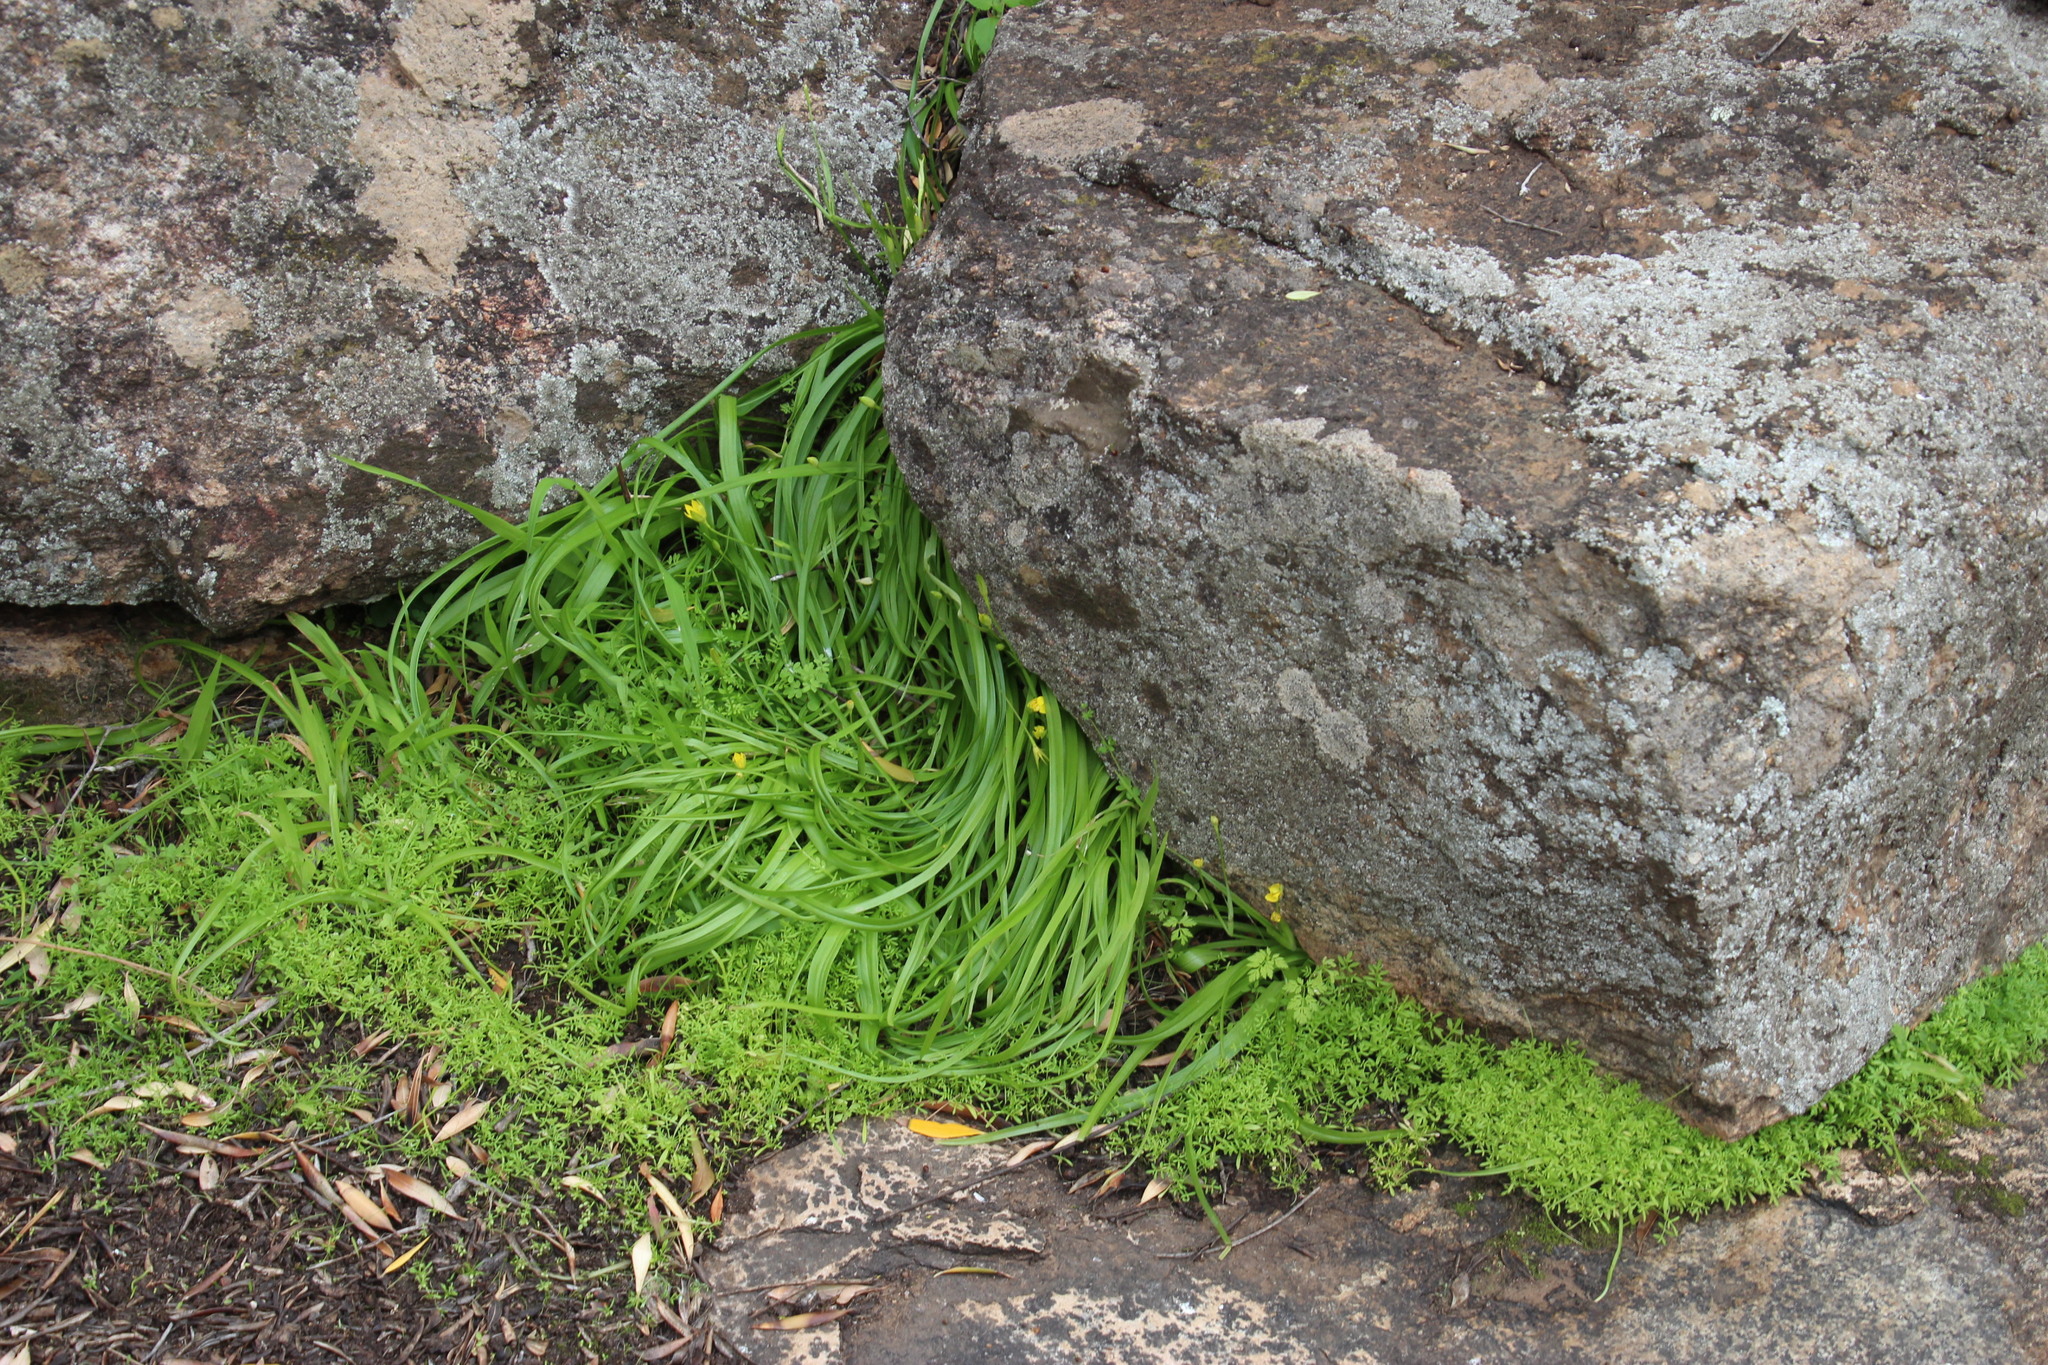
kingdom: Plantae
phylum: Tracheophyta
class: Liliopsida
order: Asparagales
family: Hypoxidaceae
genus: Pauridia
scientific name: Pauridia scullyi
